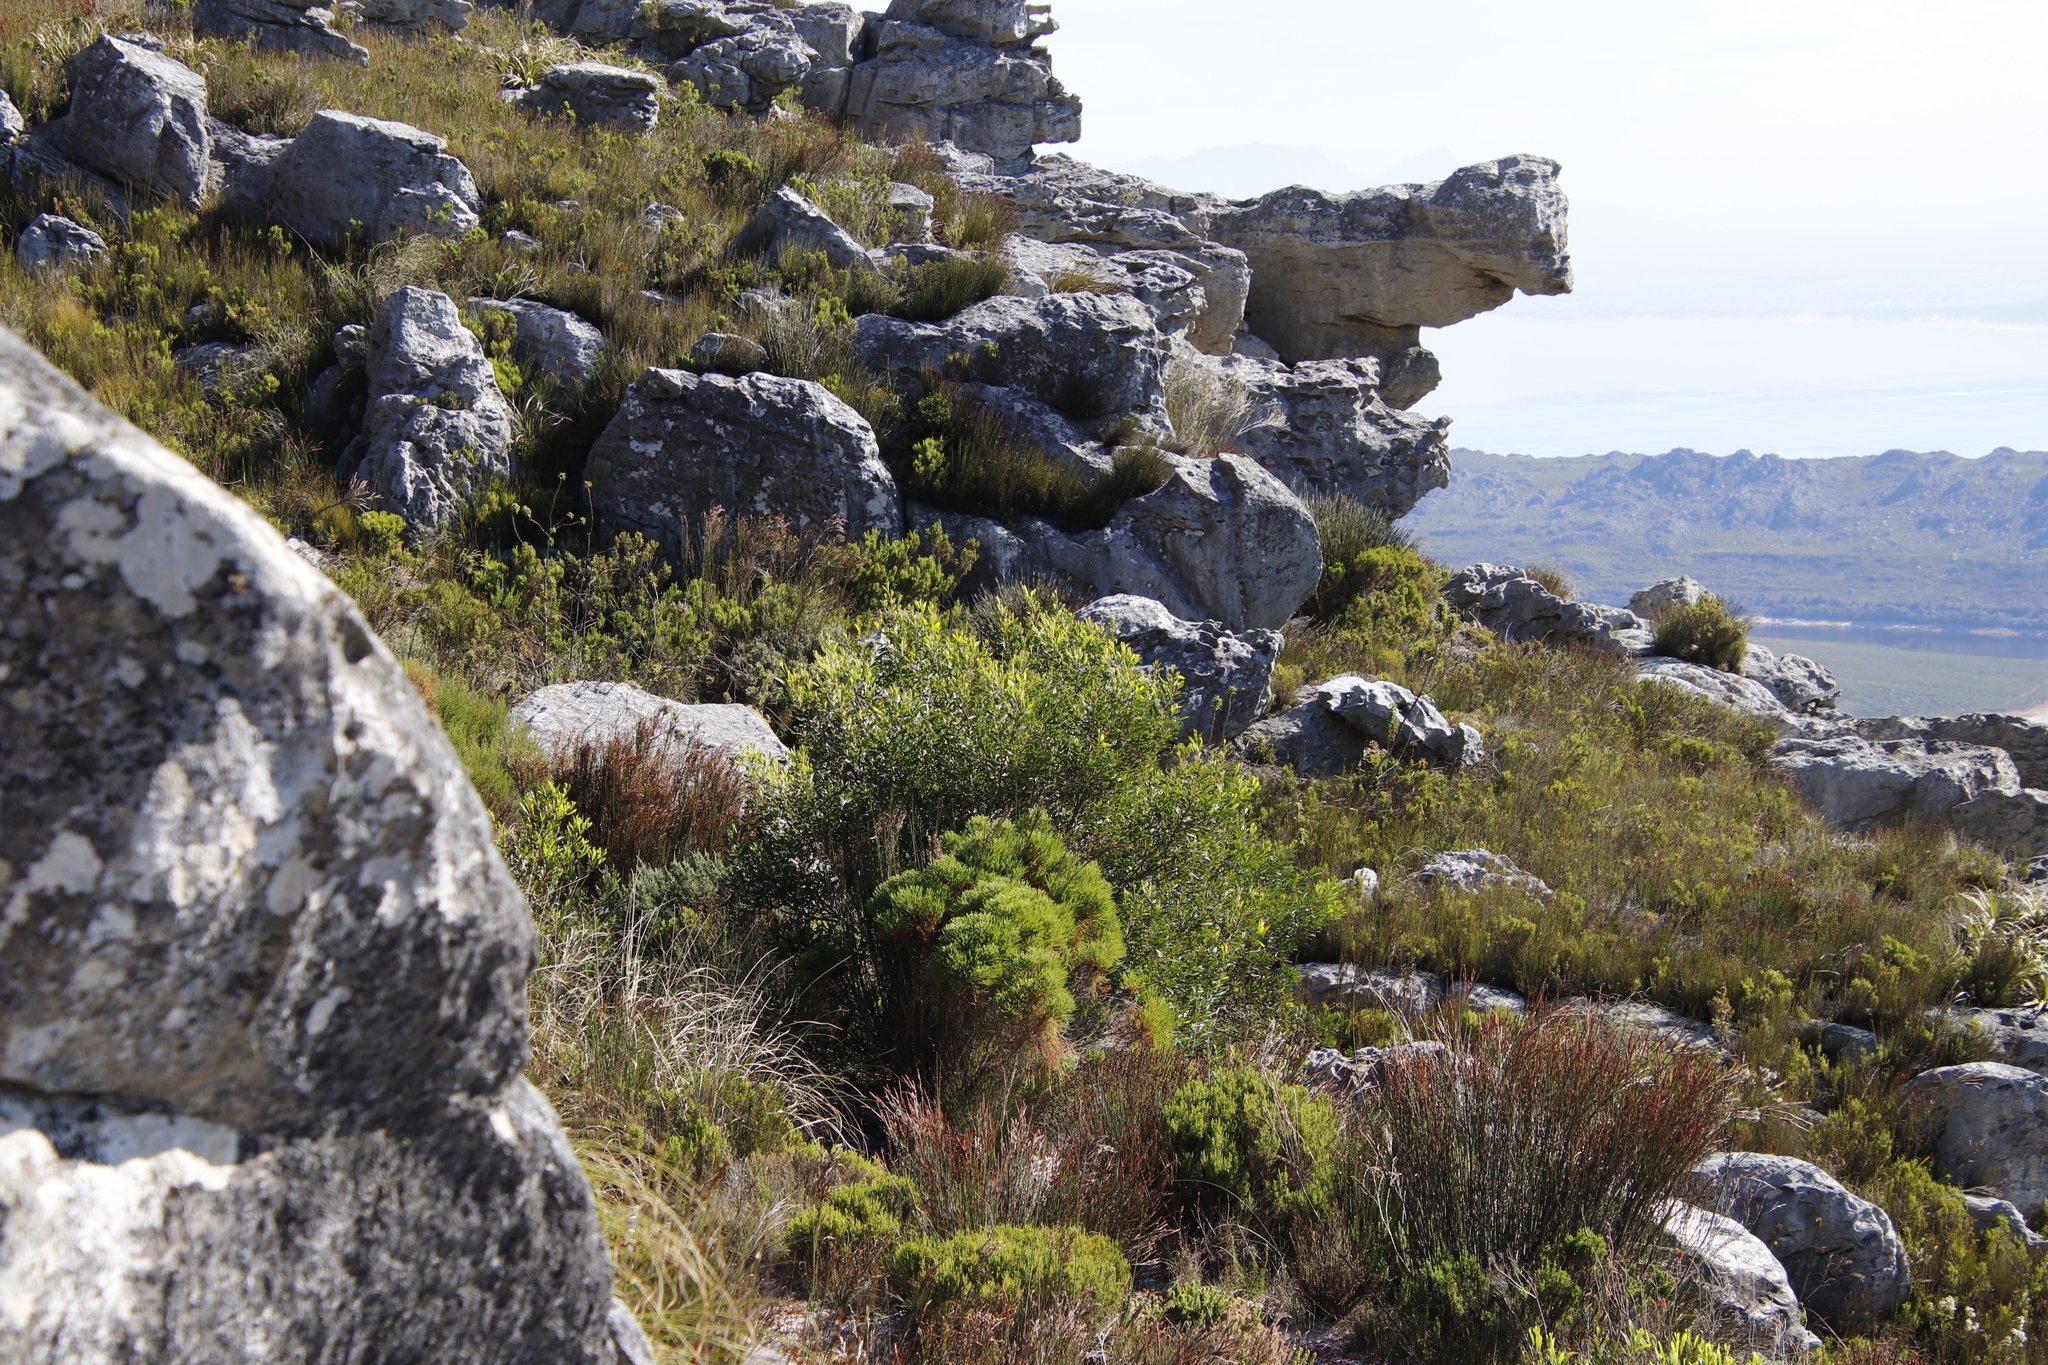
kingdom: Plantae
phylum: Tracheophyta
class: Magnoliopsida
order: Fabales
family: Fabaceae
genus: Acacia
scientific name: Acacia longifolia
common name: Sydney golden wattle
